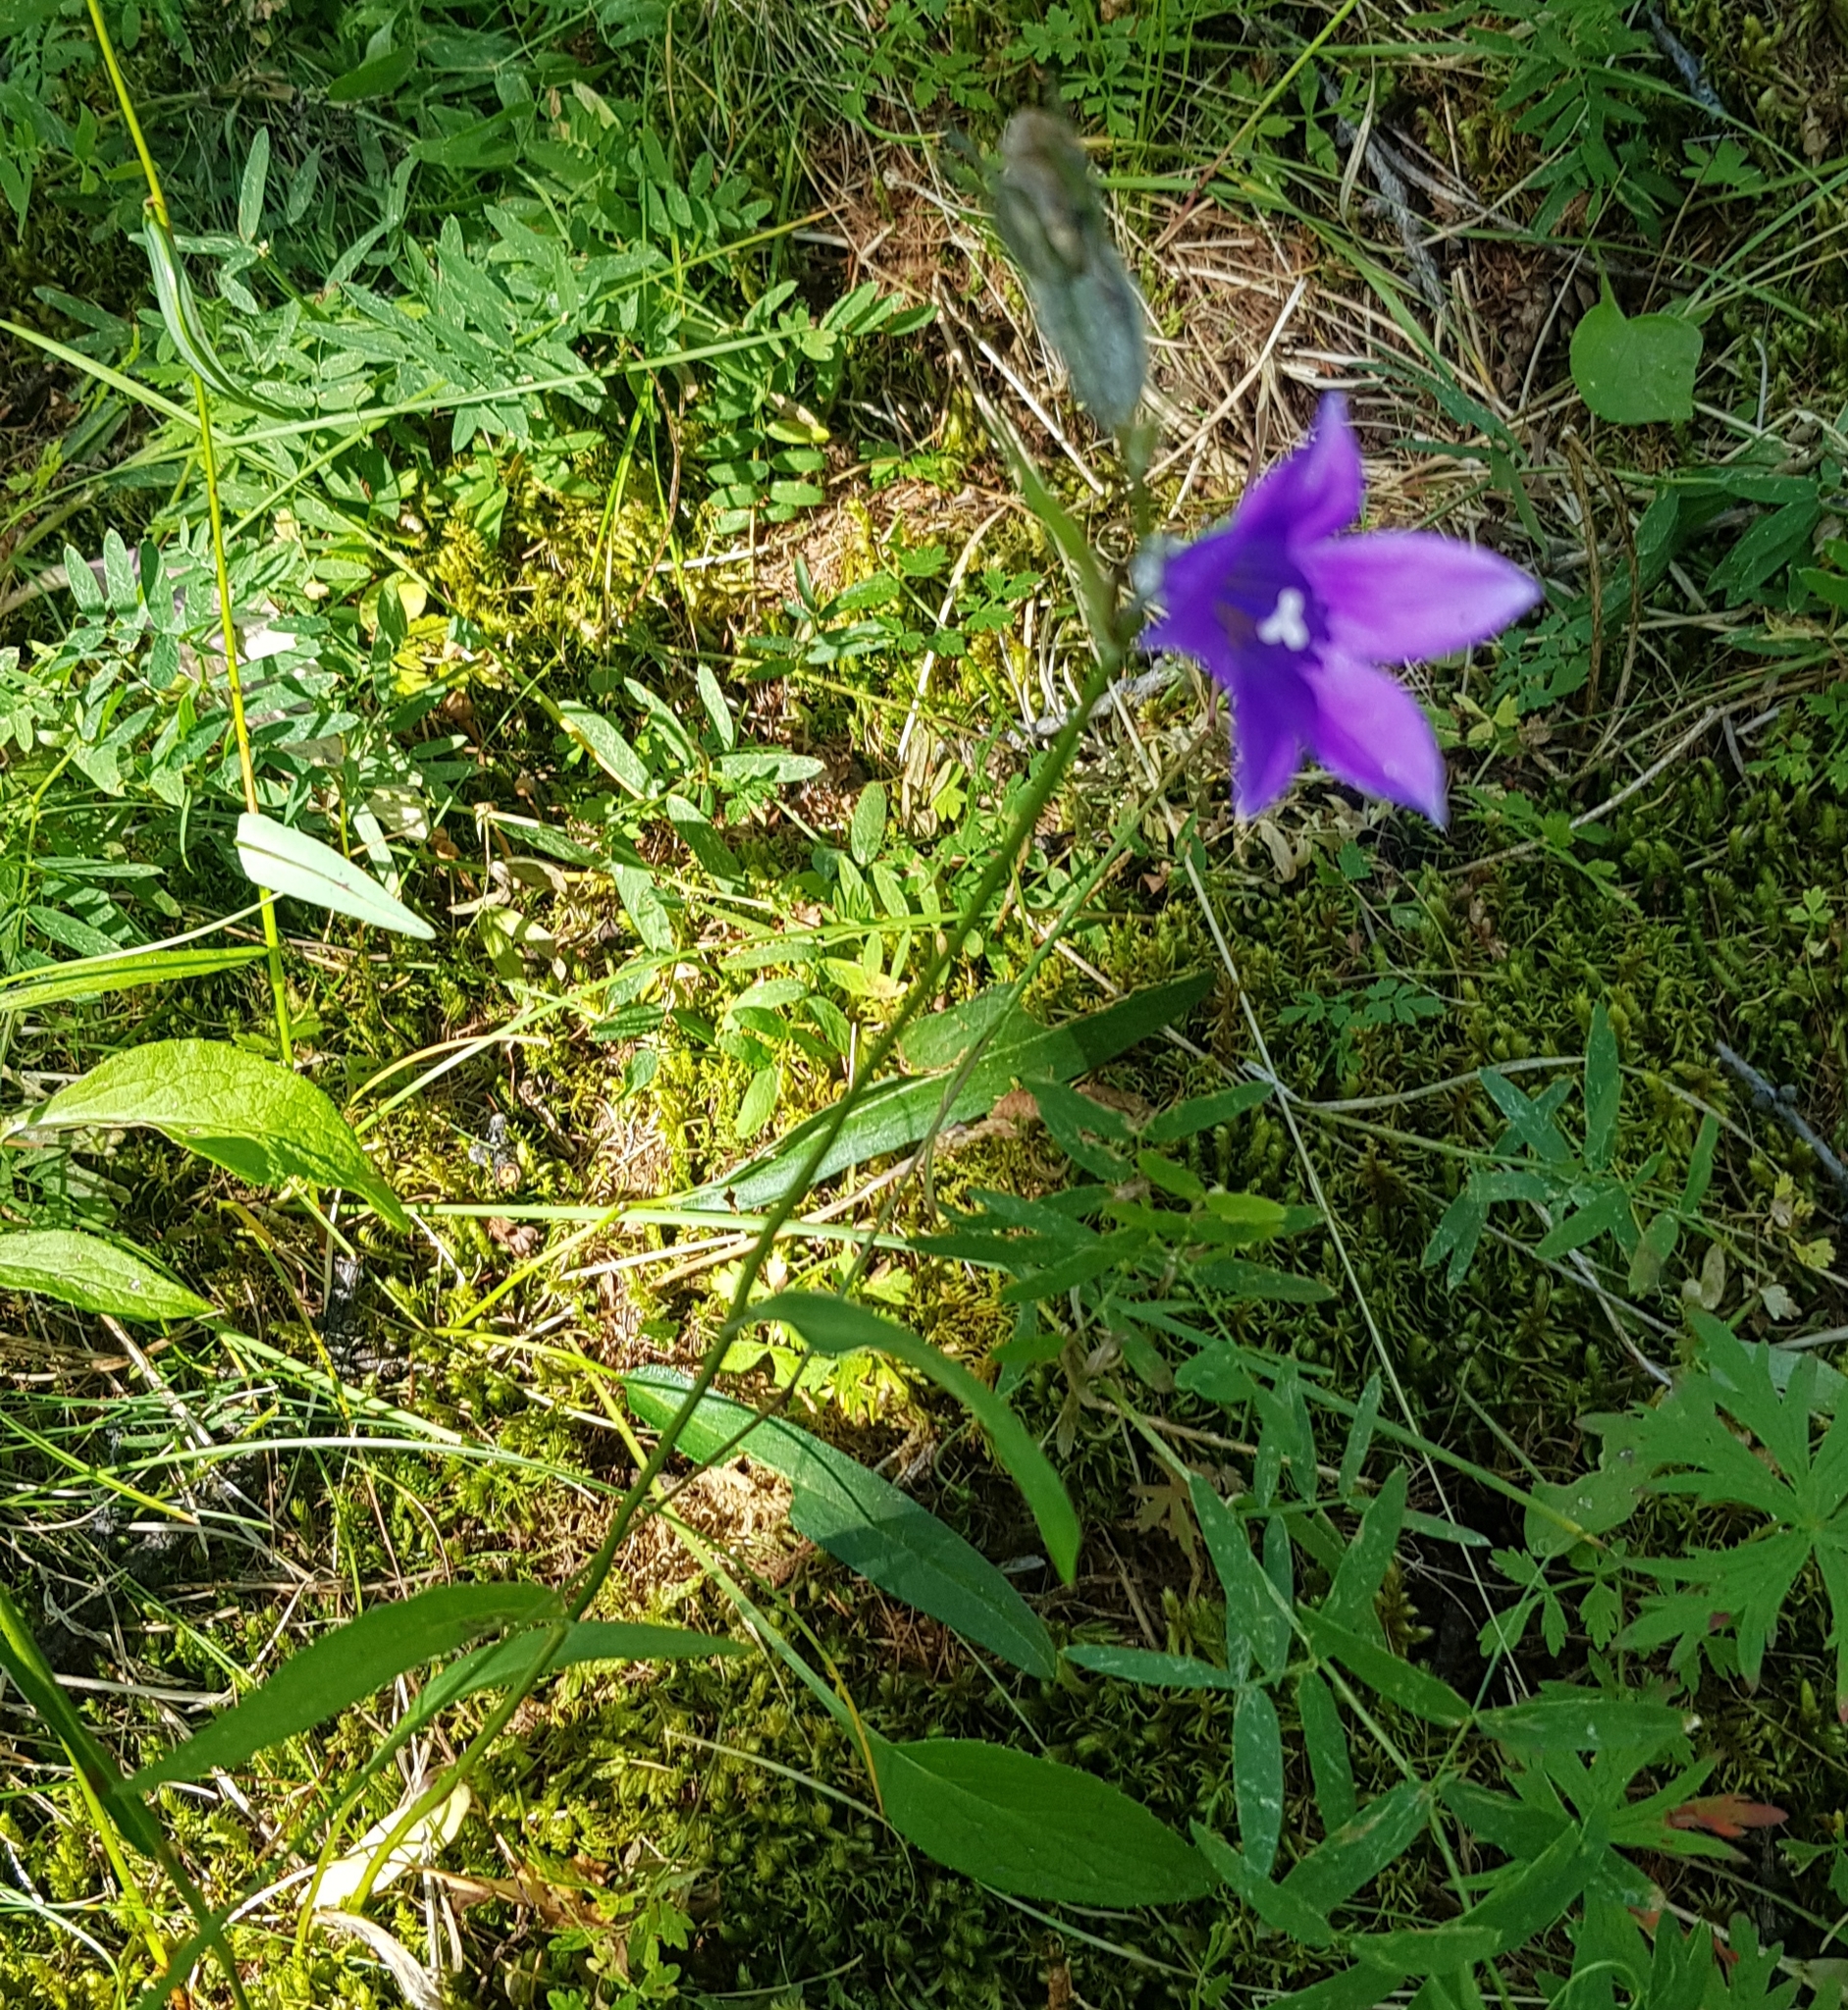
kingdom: Plantae
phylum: Tracheophyta
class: Magnoliopsida
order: Asterales
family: Campanulaceae
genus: Campanula
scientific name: Campanula stevenii
